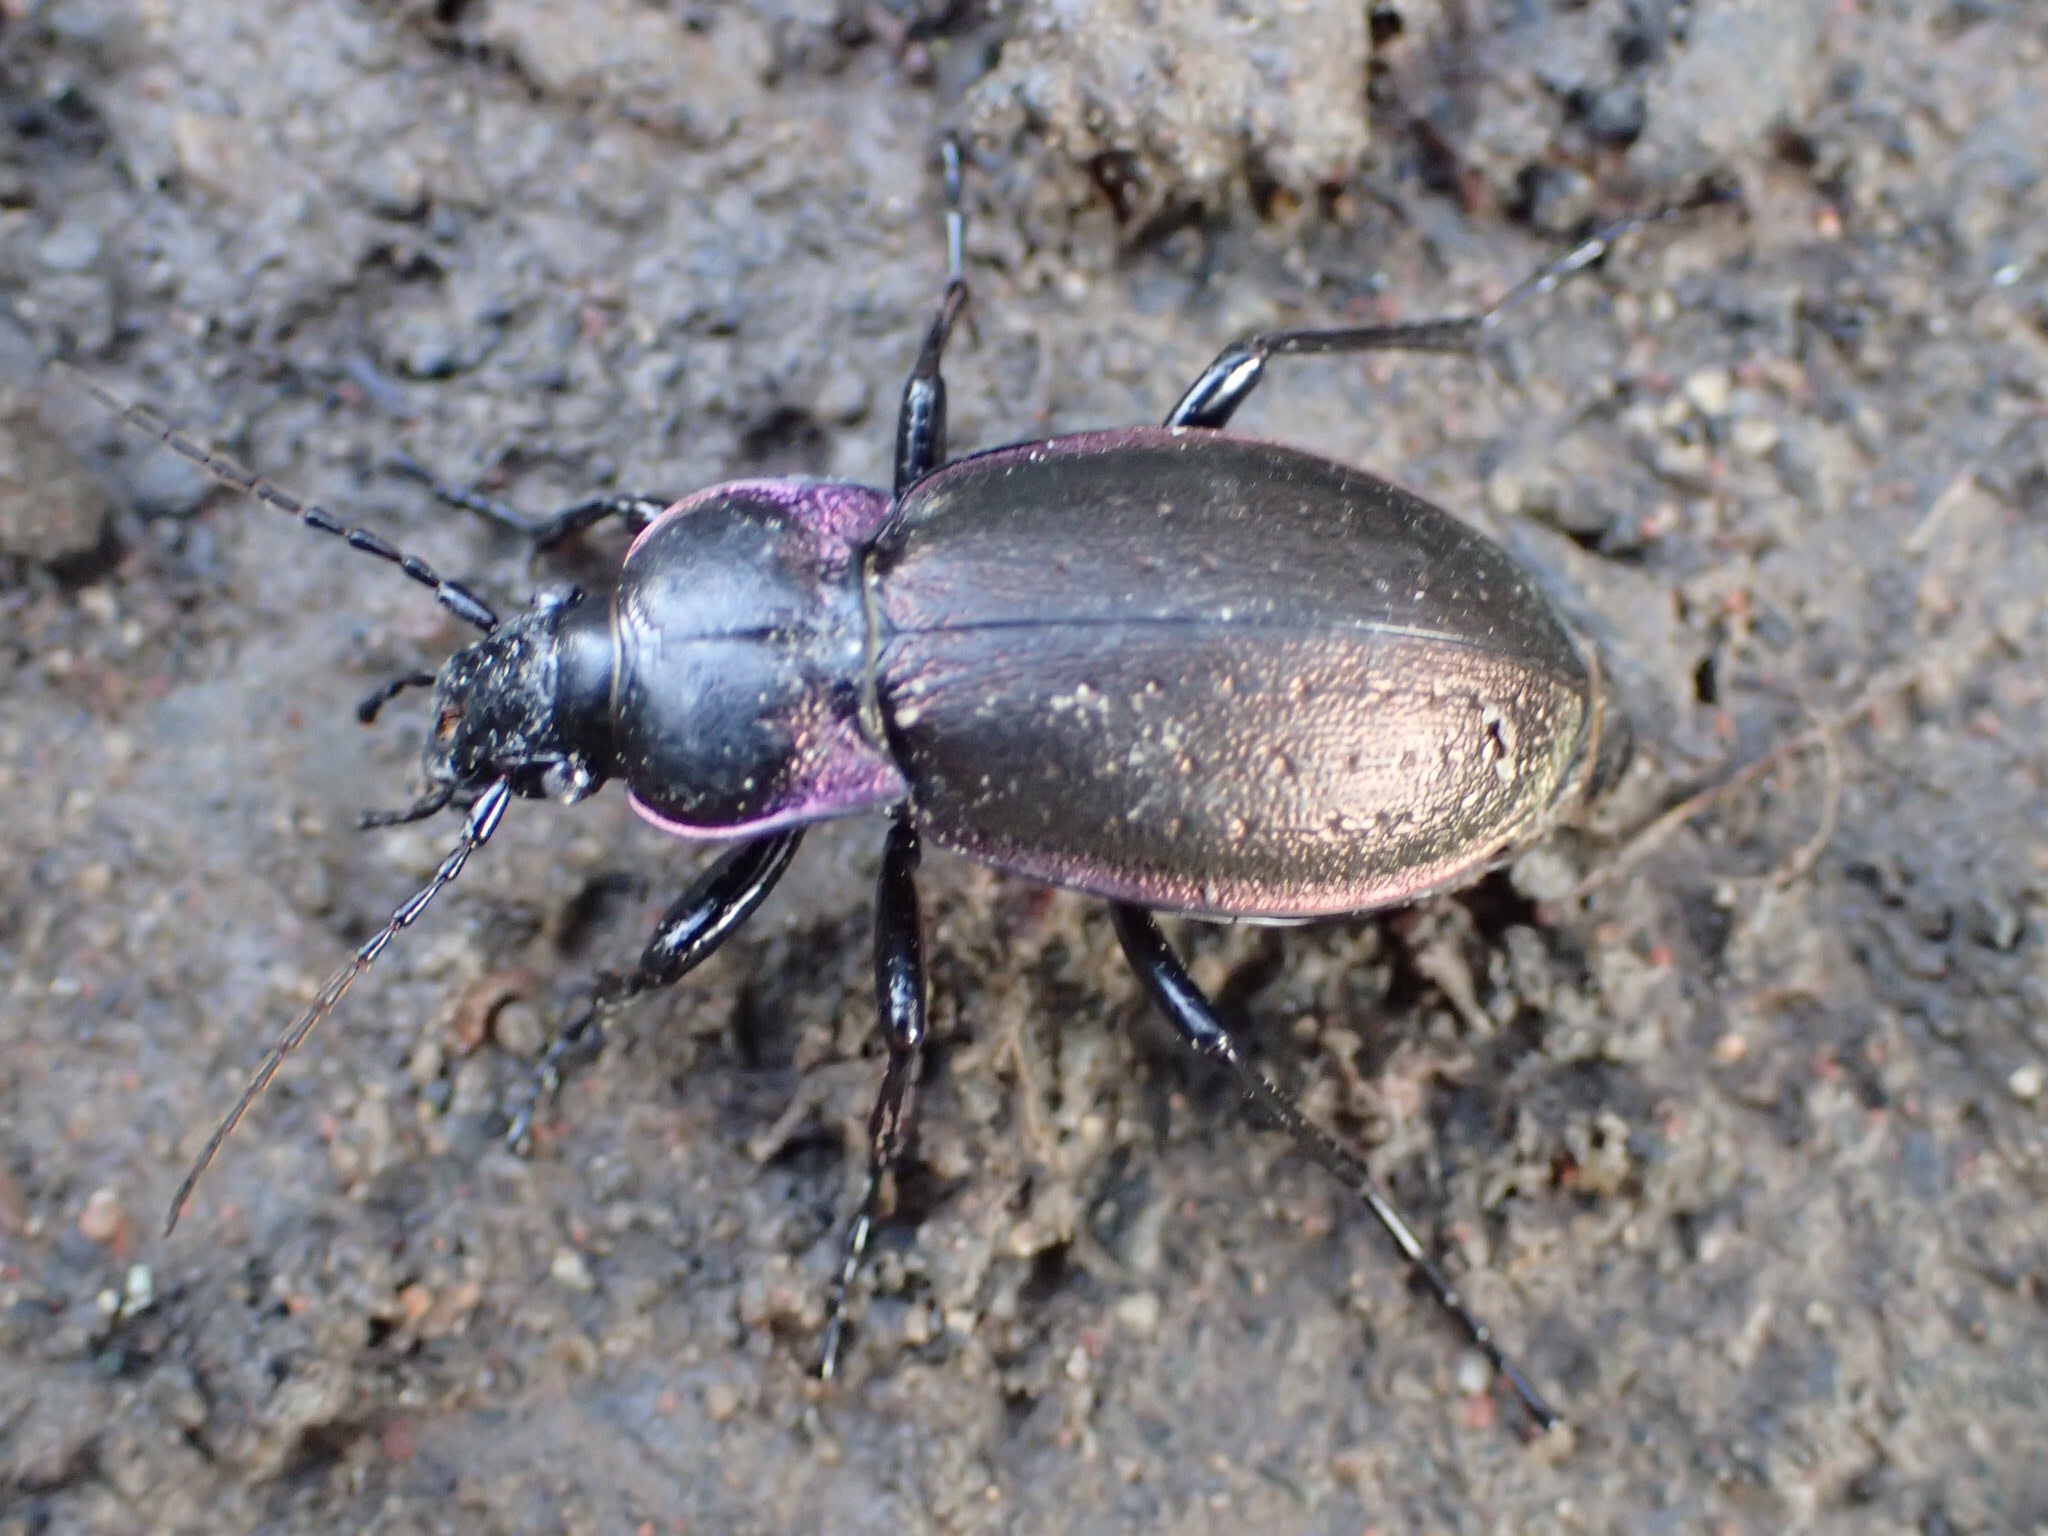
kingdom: Animalia
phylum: Arthropoda
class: Insecta
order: Coleoptera
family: Carabidae
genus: Carabus
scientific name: Carabus nemoralis
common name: European ground beetle
